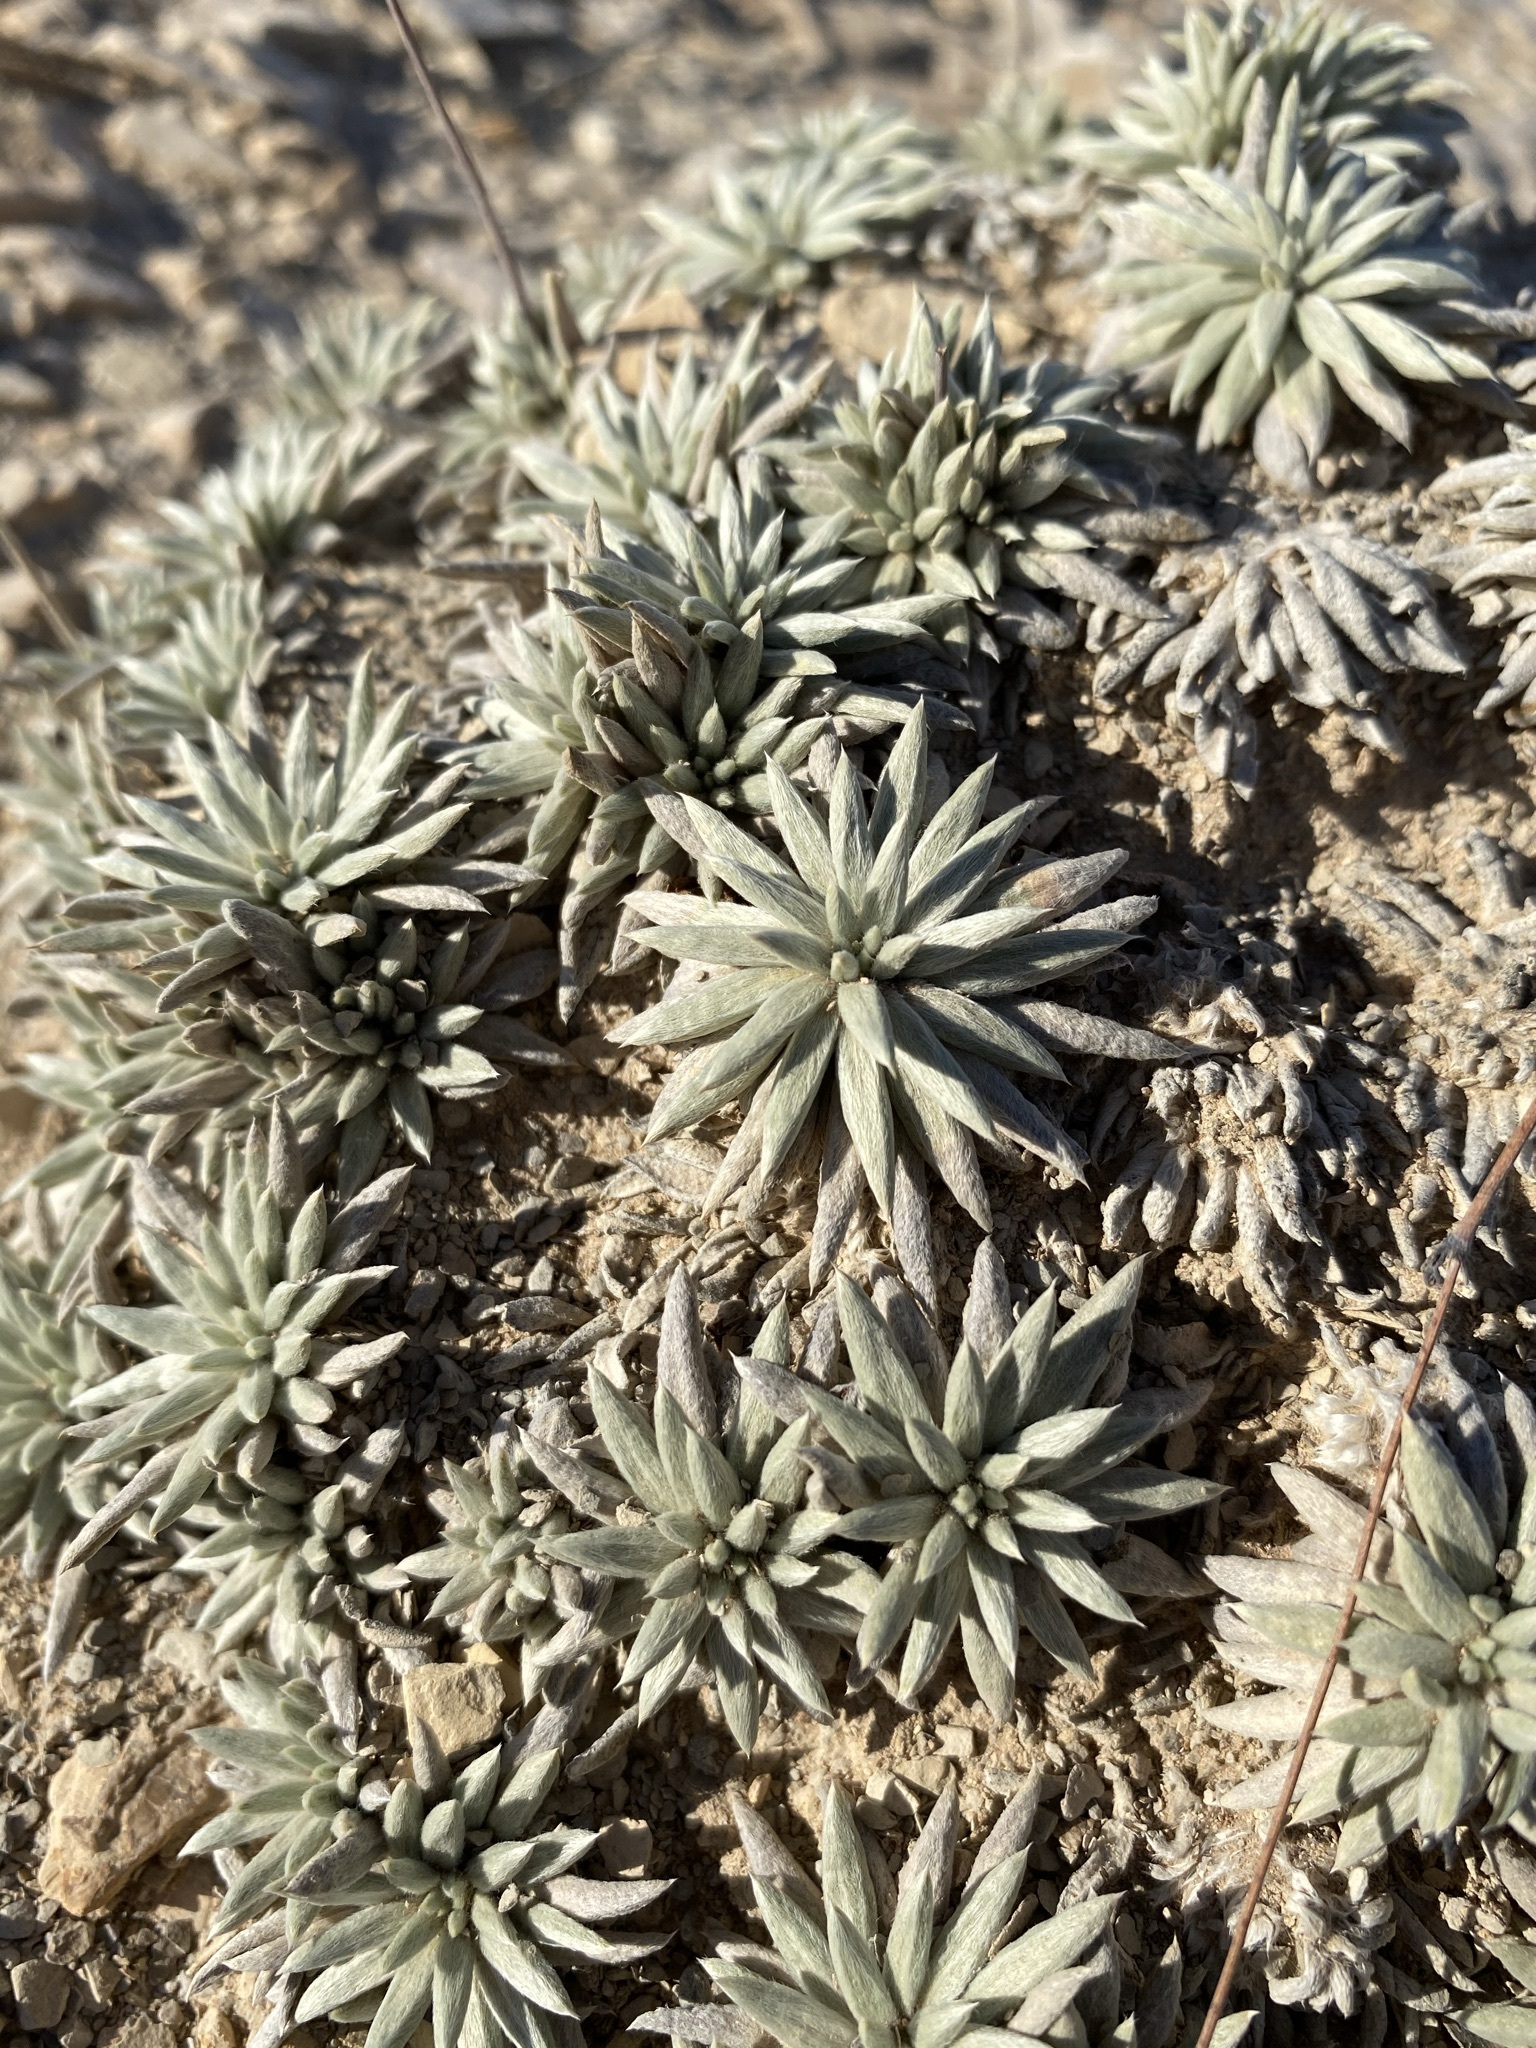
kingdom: Plantae
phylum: Tracheophyta
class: Magnoliopsida
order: Caryophyllales
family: Polygonaceae
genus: Eriogonum
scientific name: Eriogonum havardii
